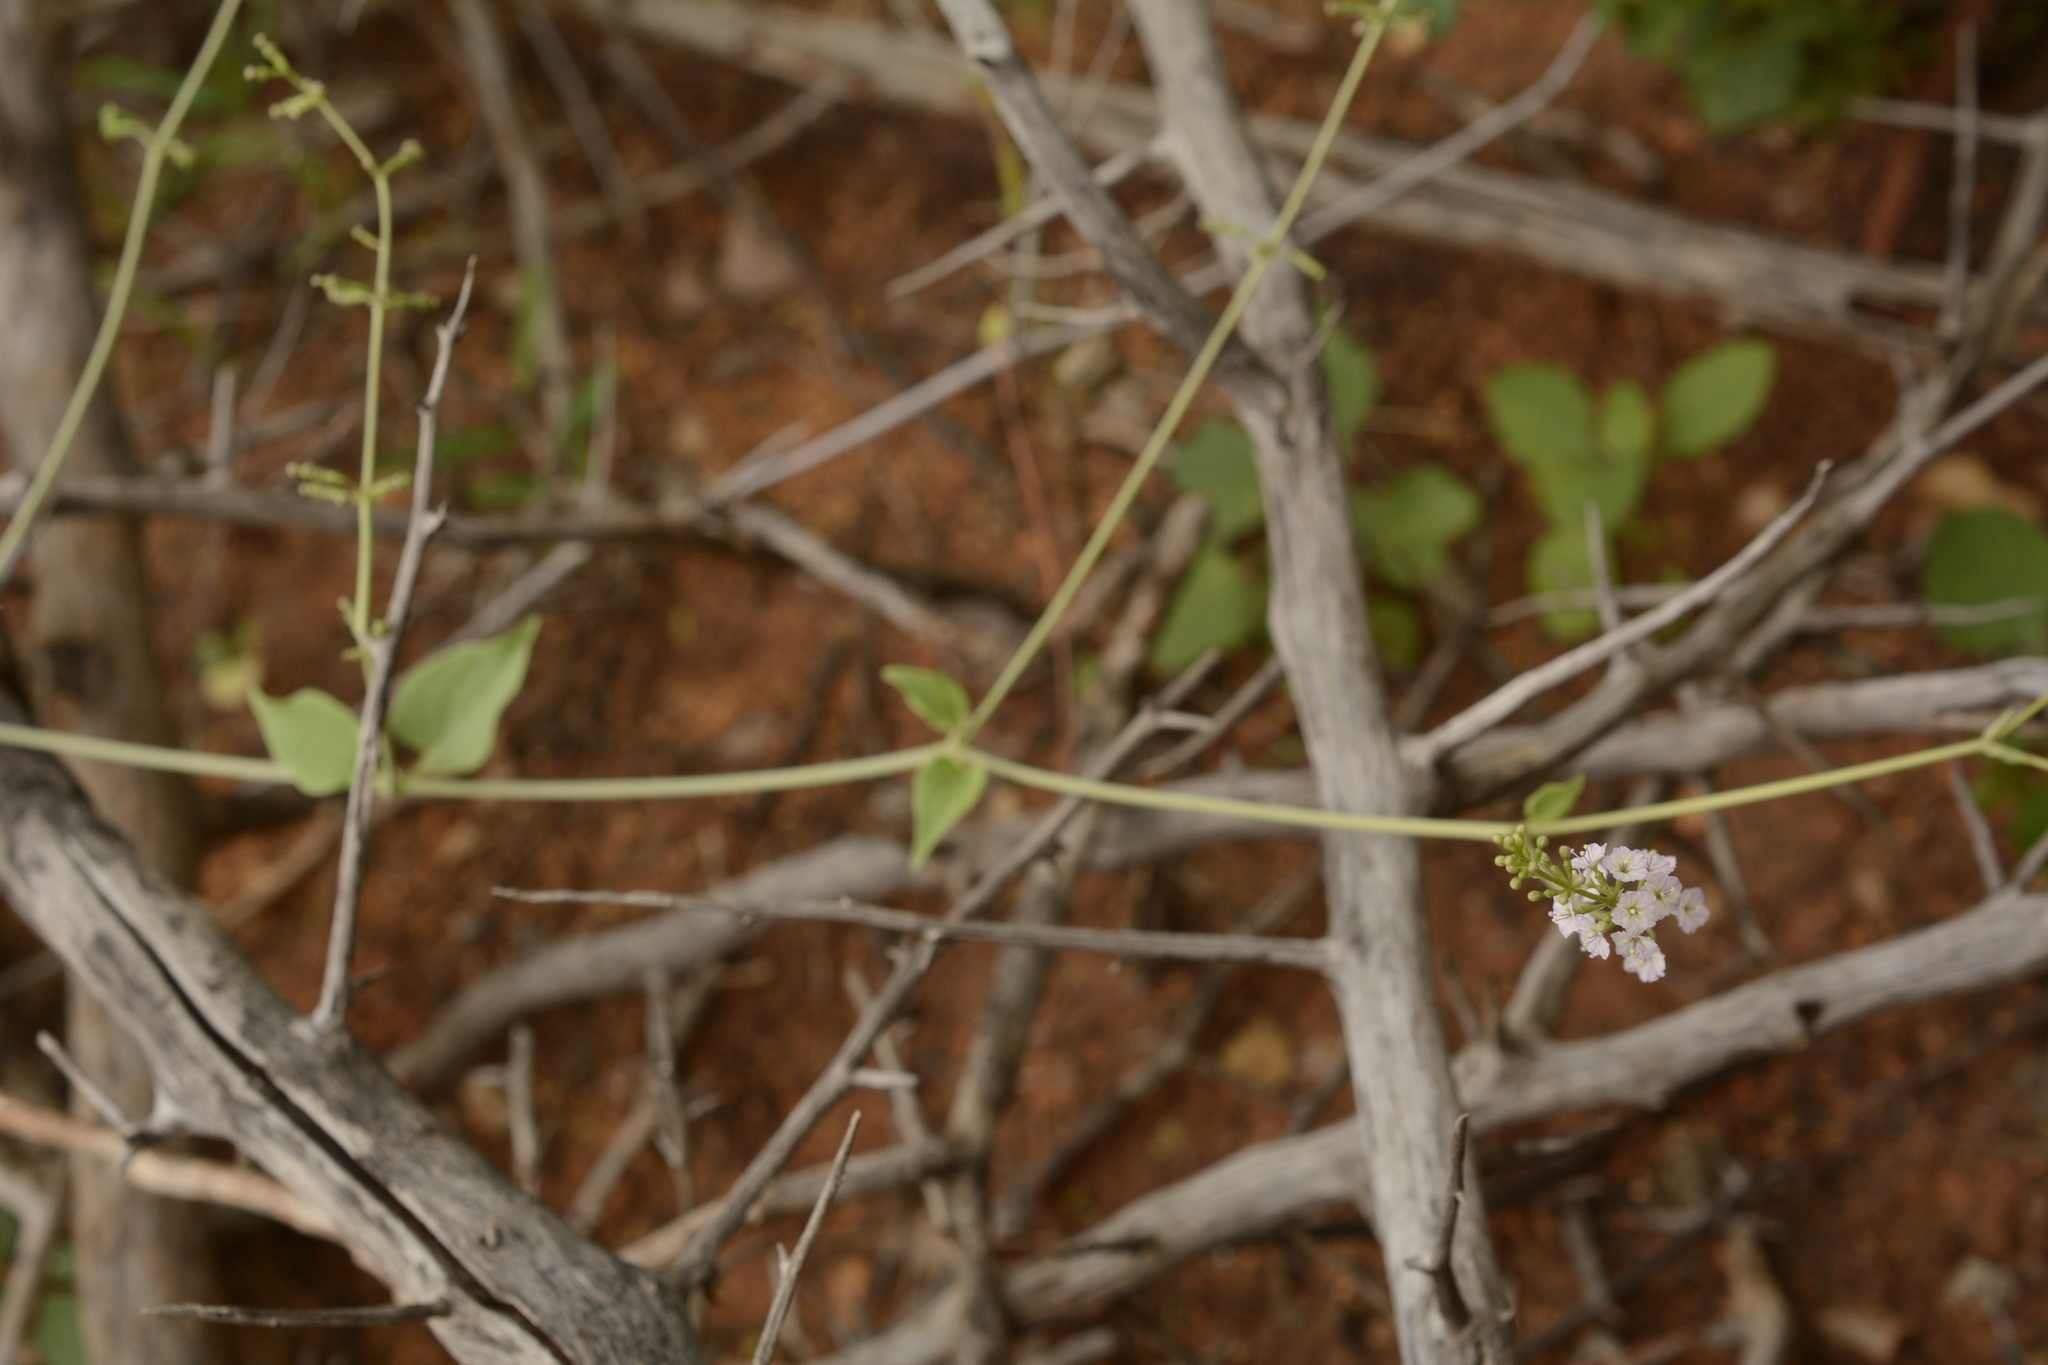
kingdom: Plantae
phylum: Tracheophyta
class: Magnoliopsida
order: Caryophyllales
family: Nyctaginaceae
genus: Commicarpus
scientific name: Commicarpus helenae
